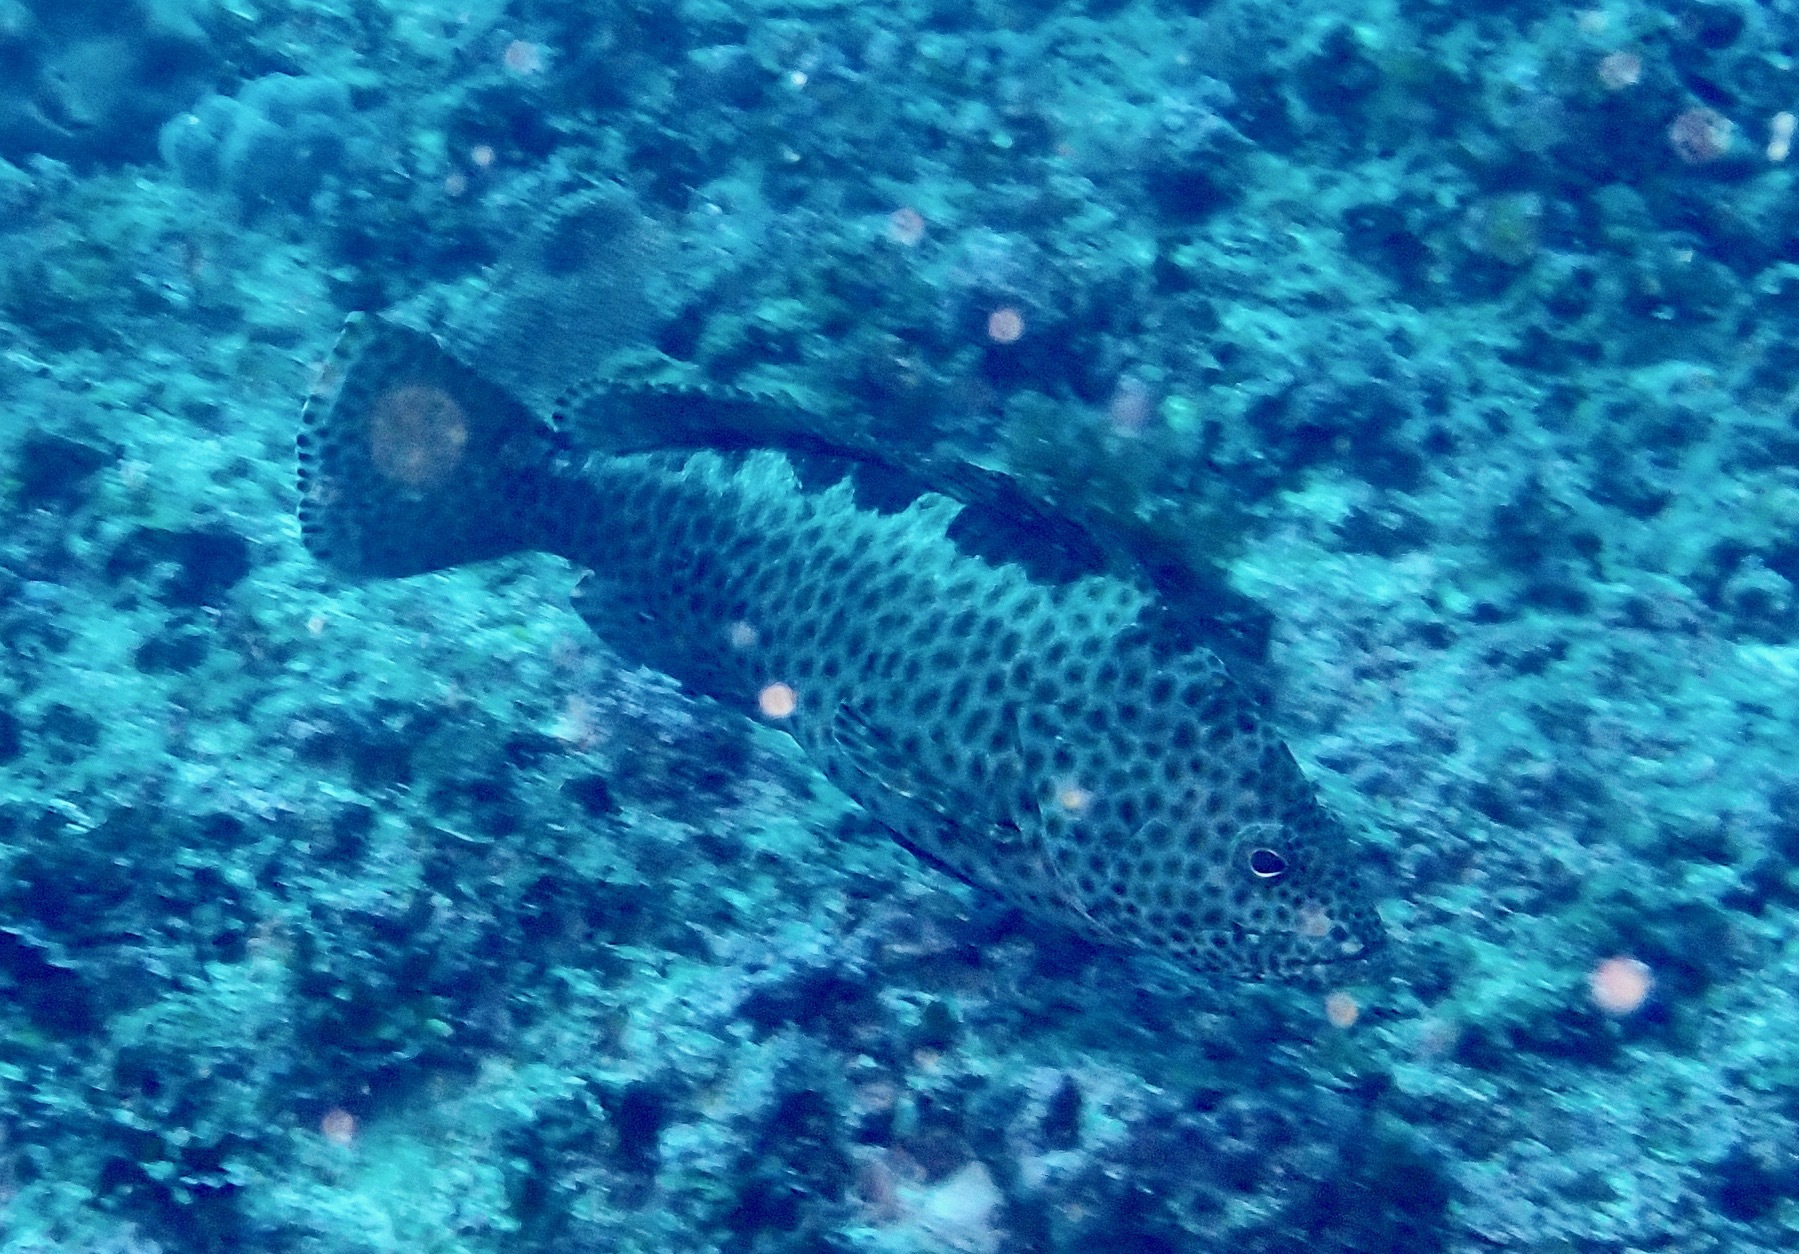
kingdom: Animalia
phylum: Chordata
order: Perciformes
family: Serranidae
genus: Epinephelus
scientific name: Epinephelus bilobatus
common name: Twinspot grouper
